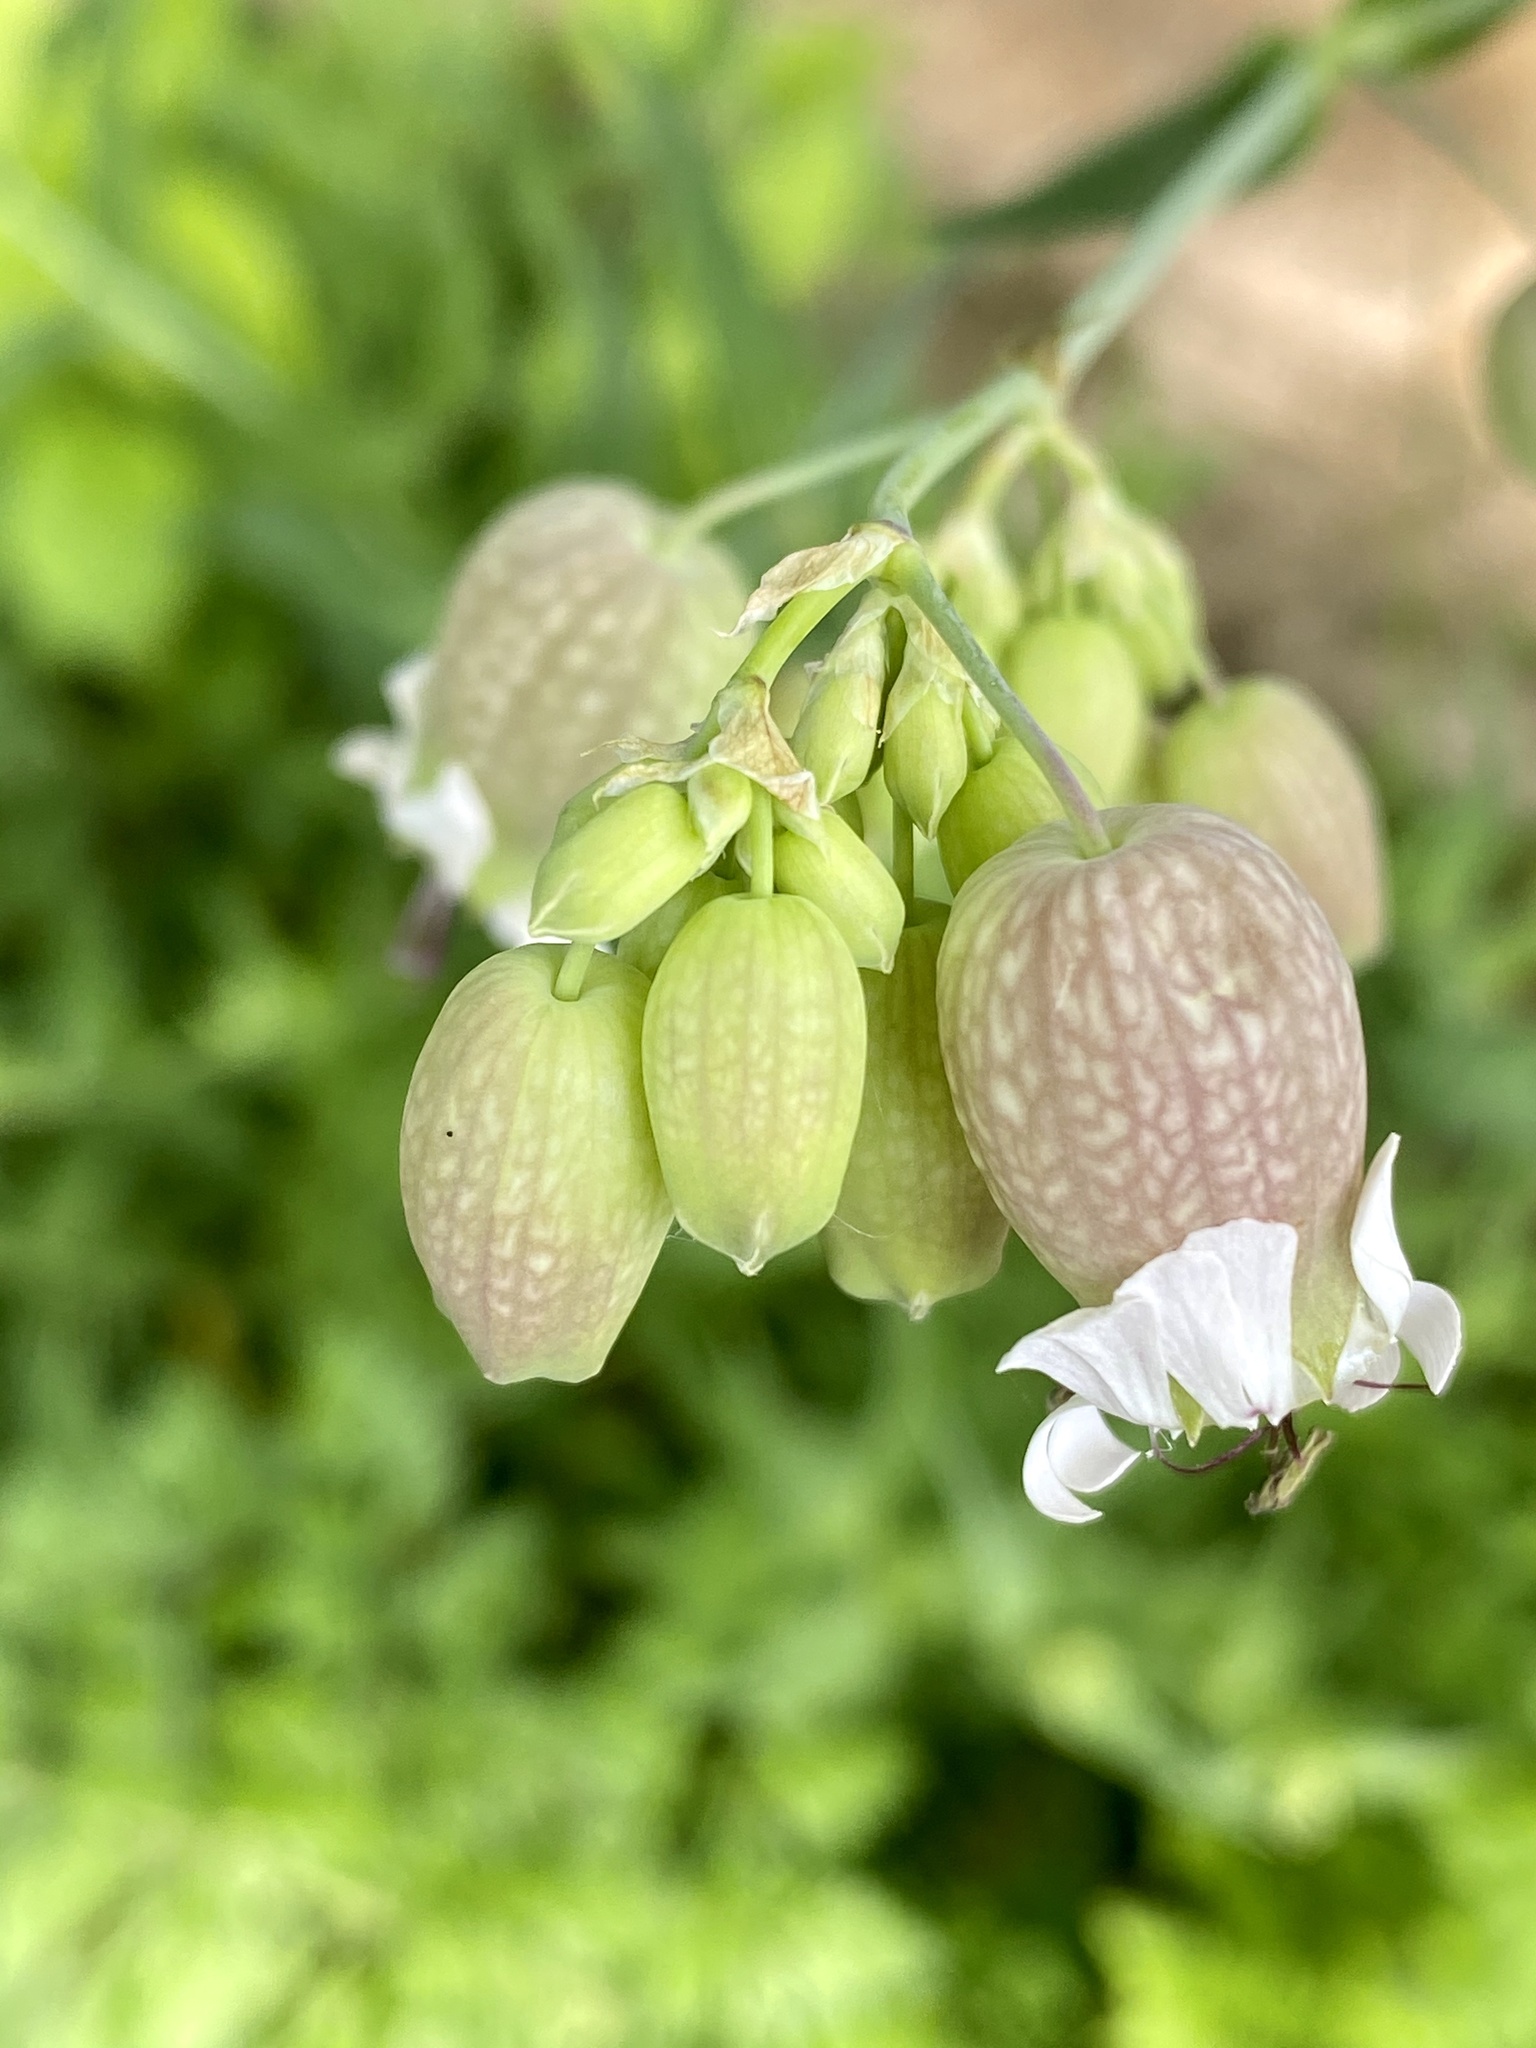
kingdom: Plantae
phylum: Tracheophyta
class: Magnoliopsida
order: Caryophyllales
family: Caryophyllaceae
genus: Silene
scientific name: Silene vulgaris
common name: Bladder campion
